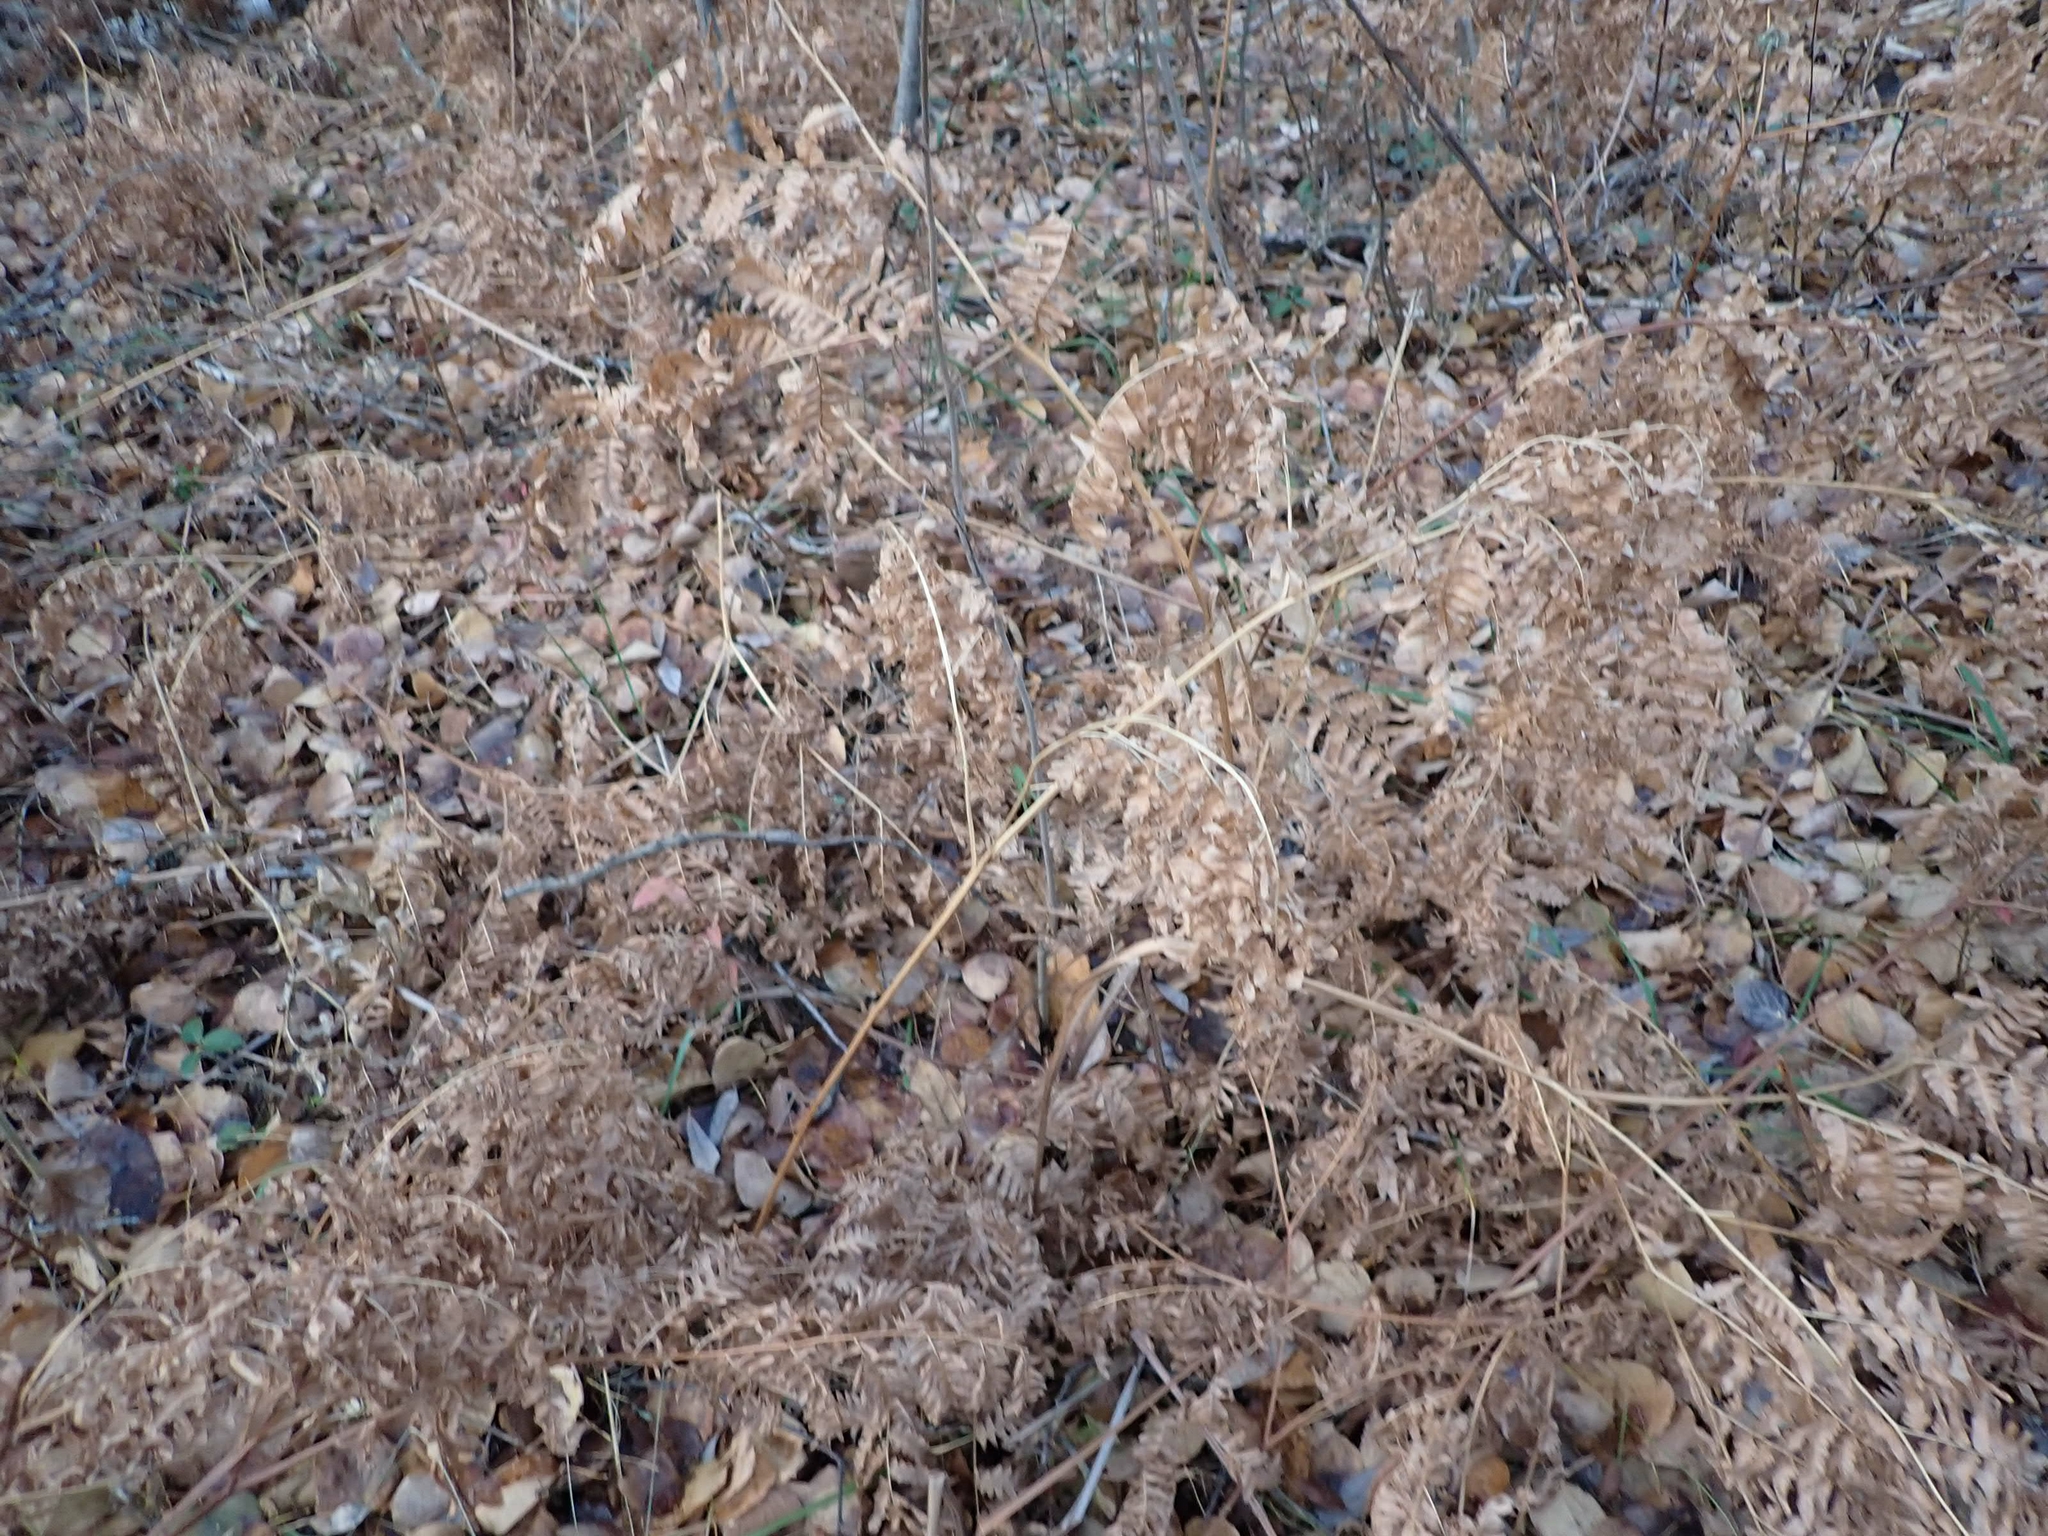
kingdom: Plantae
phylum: Tracheophyta
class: Polypodiopsida
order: Polypodiales
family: Dennstaedtiaceae
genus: Pteridium
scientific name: Pteridium aquilinum
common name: Bracken
